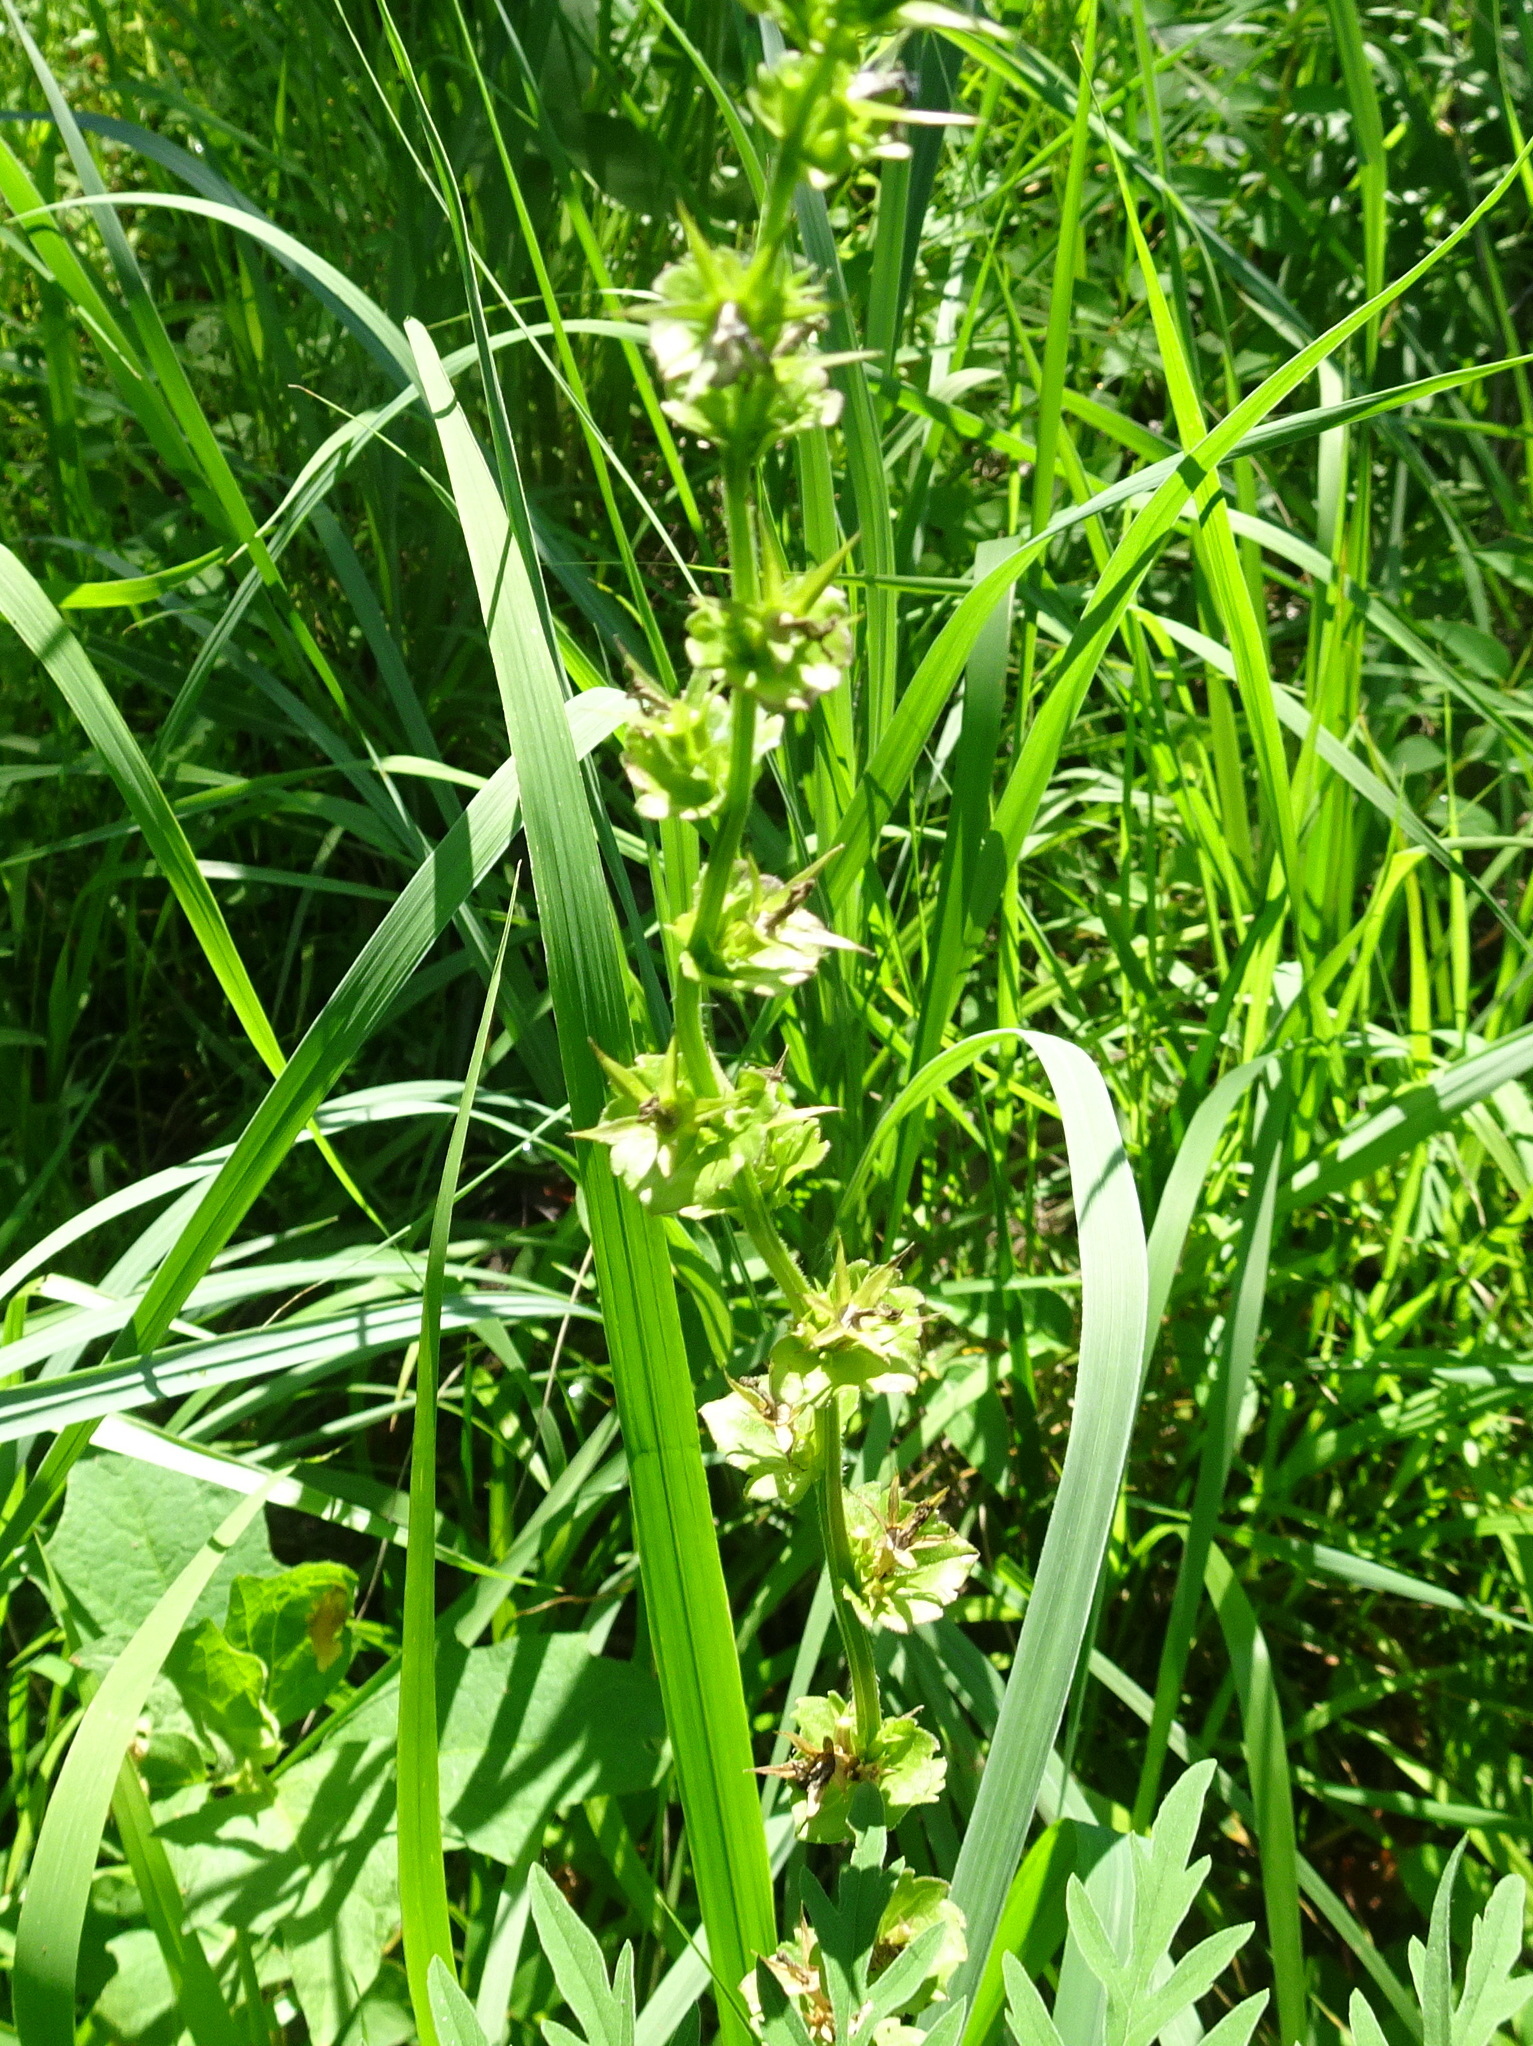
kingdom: Plantae
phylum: Tracheophyta
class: Magnoliopsida
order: Asterales
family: Campanulaceae
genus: Triodanis
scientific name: Triodanis perfoliata
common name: Clasping venus' looking-glass
